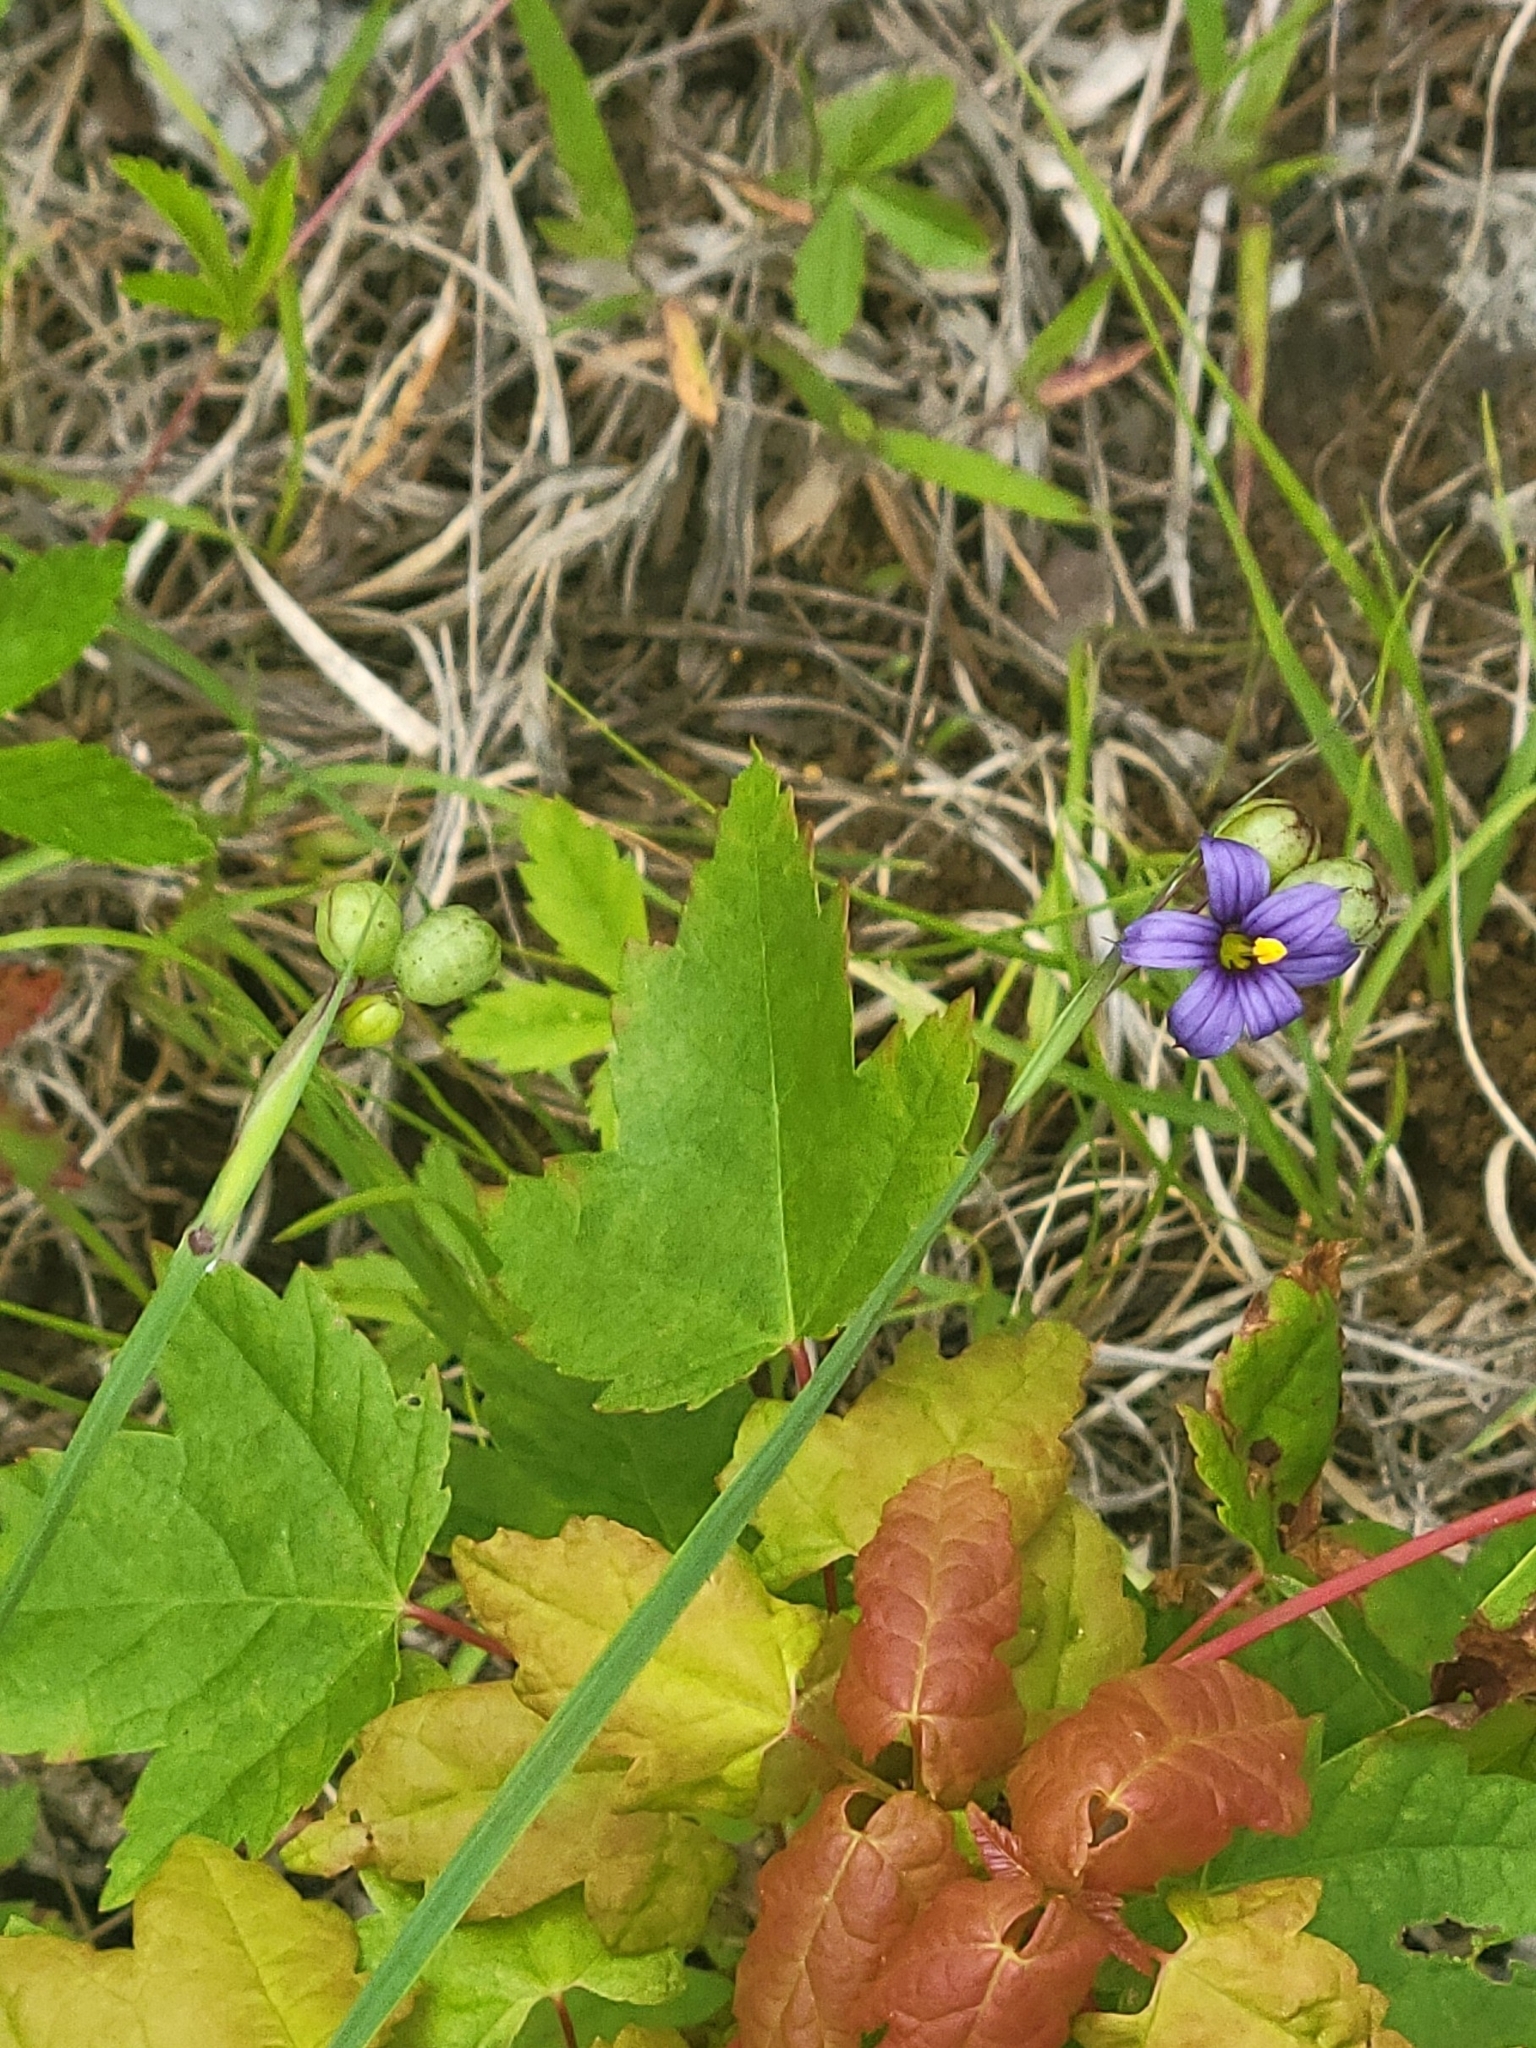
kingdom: Plantae
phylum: Tracheophyta
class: Liliopsida
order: Asparagales
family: Iridaceae
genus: Sisyrinchium
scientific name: Sisyrinchium montanum
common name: American blue-eyed-grass
